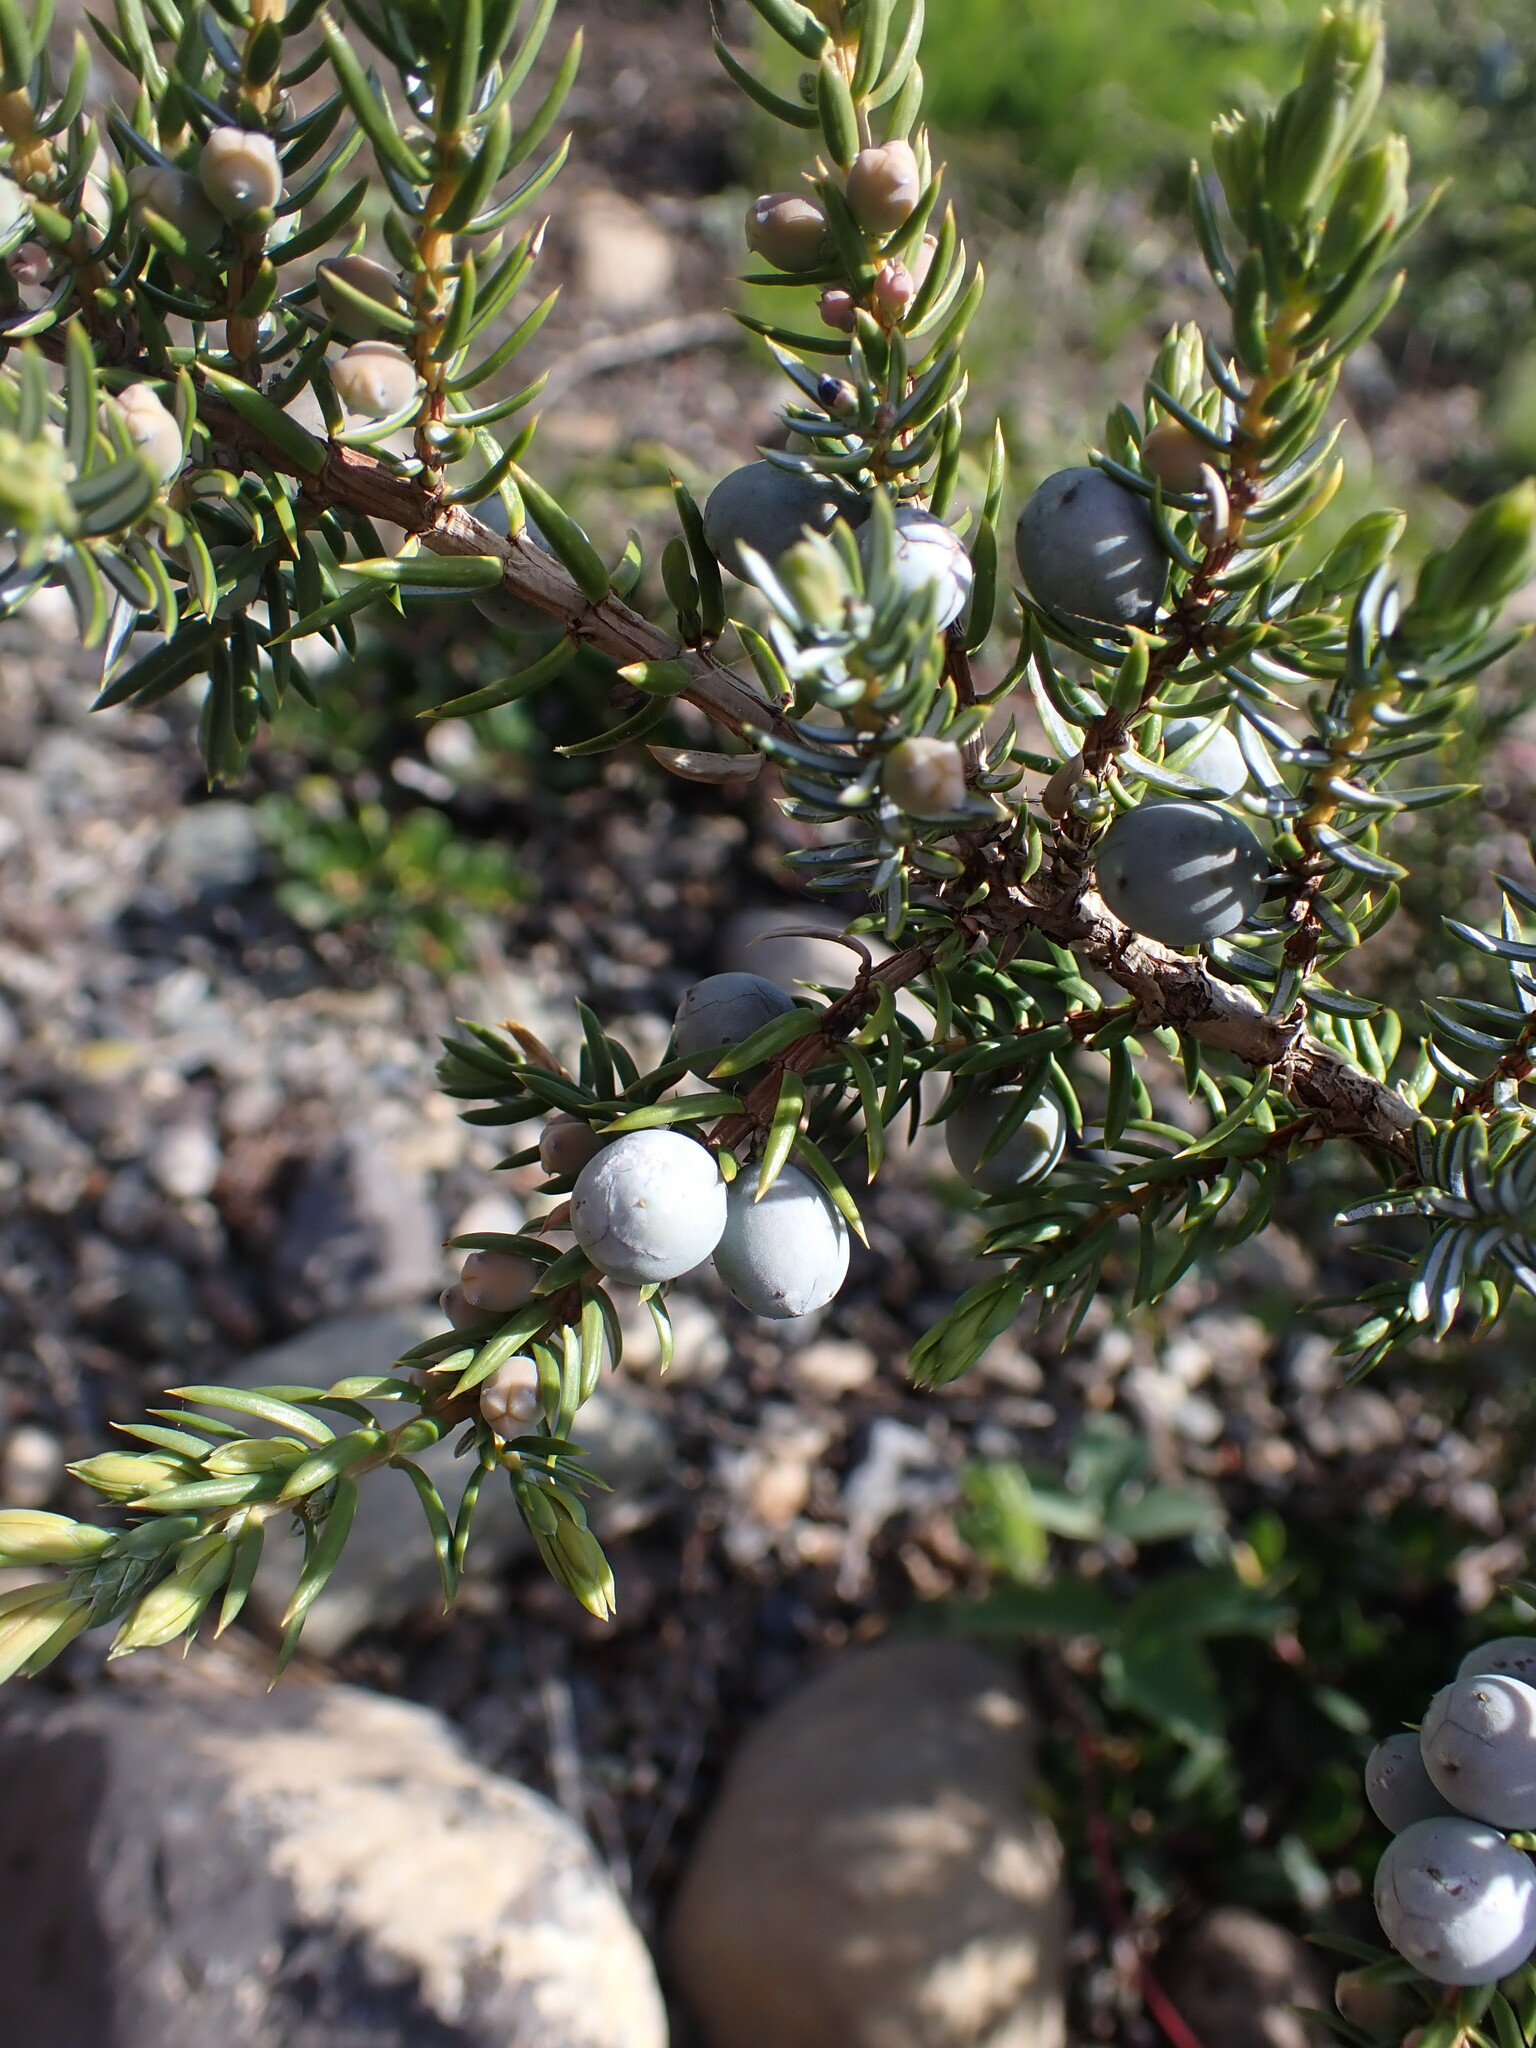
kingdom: Plantae
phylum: Tracheophyta
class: Pinopsida
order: Pinales
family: Cupressaceae
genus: Juniperus
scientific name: Juniperus communis
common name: Common juniper
